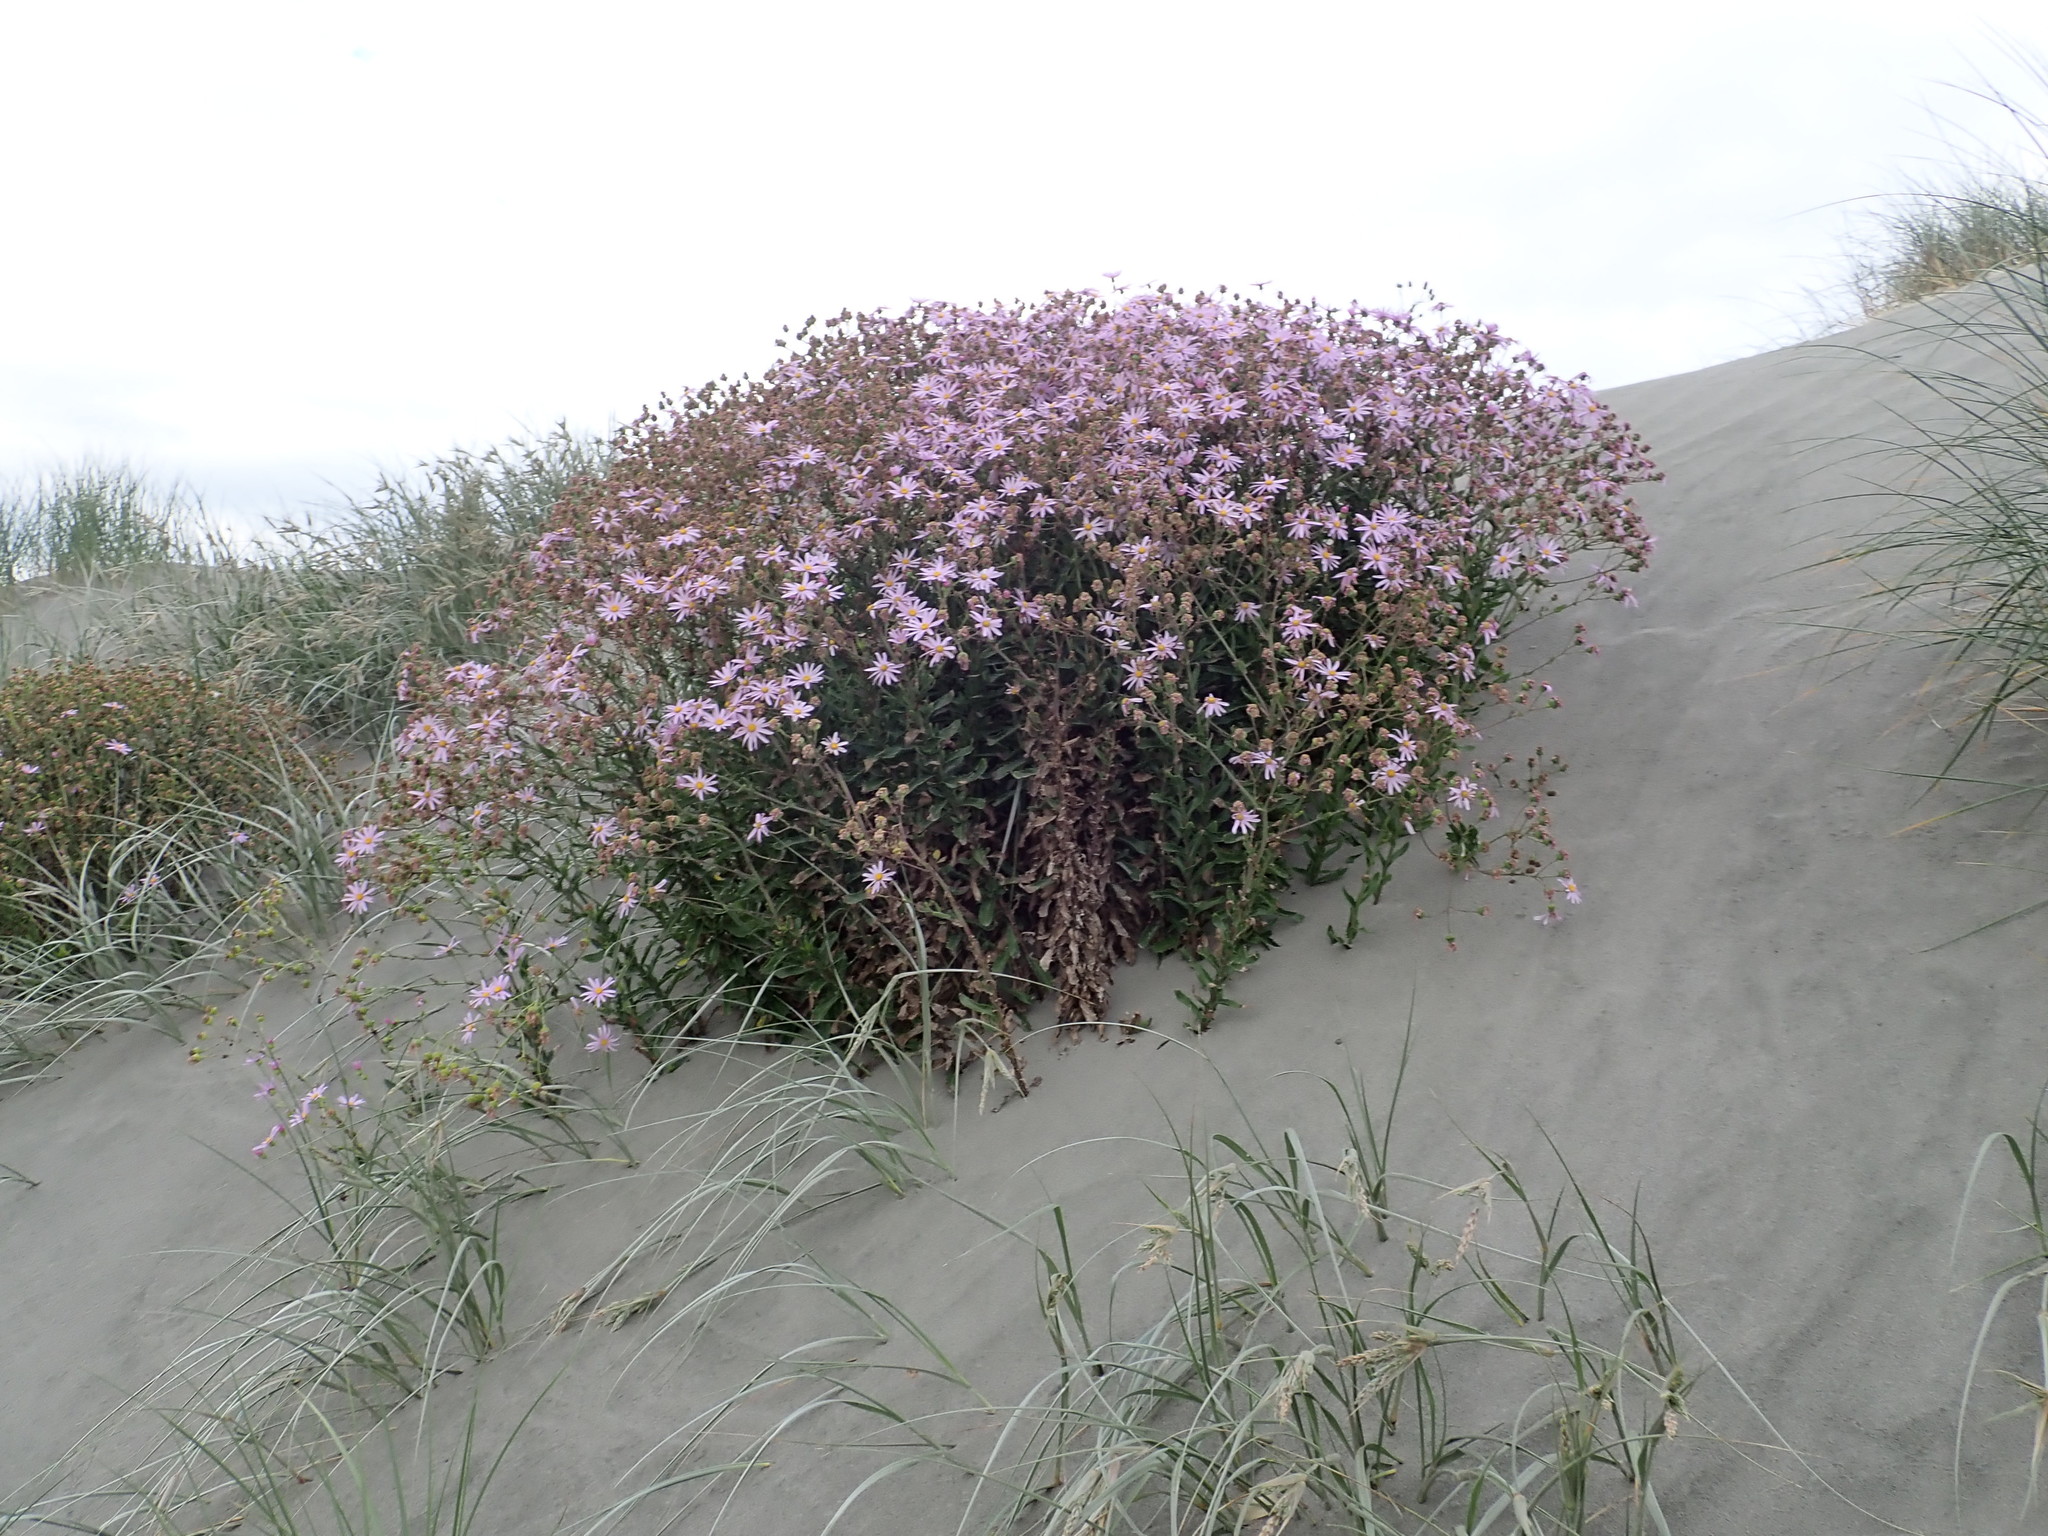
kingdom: Plantae
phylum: Tracheophyta
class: Magnoliopsida
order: Asterales
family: Asteraceae
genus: Senecio
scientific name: Senecio glastifolius
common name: Woad-leaved ragwort
